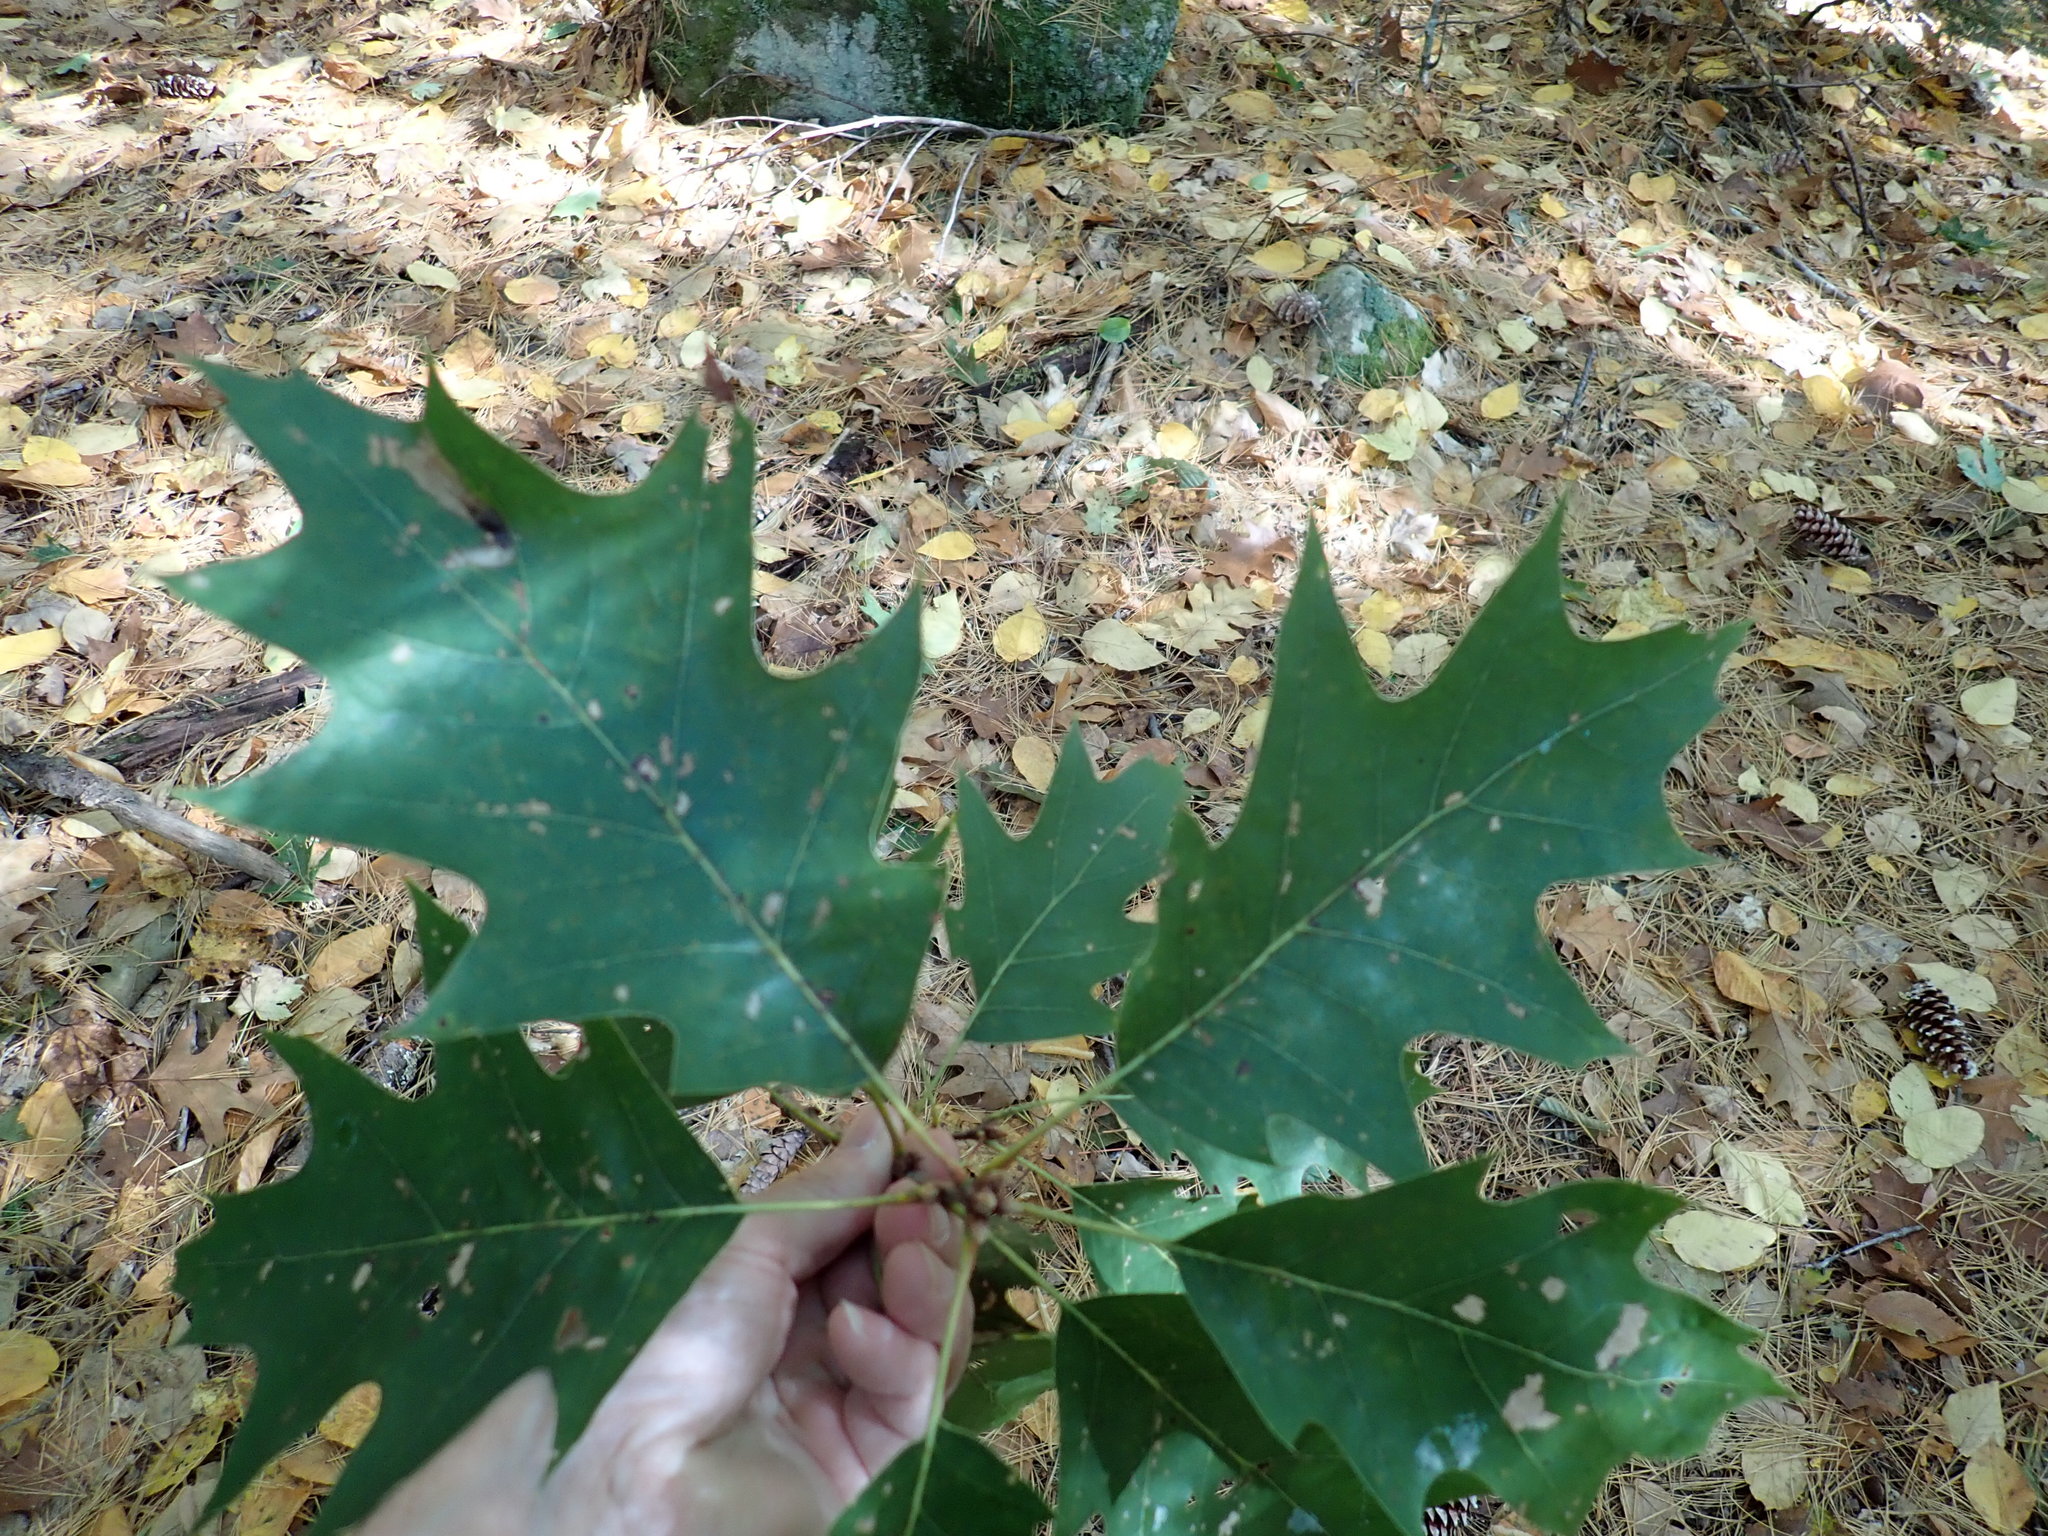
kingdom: Plantae
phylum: Tracheophyta
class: Magnoliopsida
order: Fagales
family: Fagaceae
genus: Quercus
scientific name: Quercus rubra
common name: Red oak
